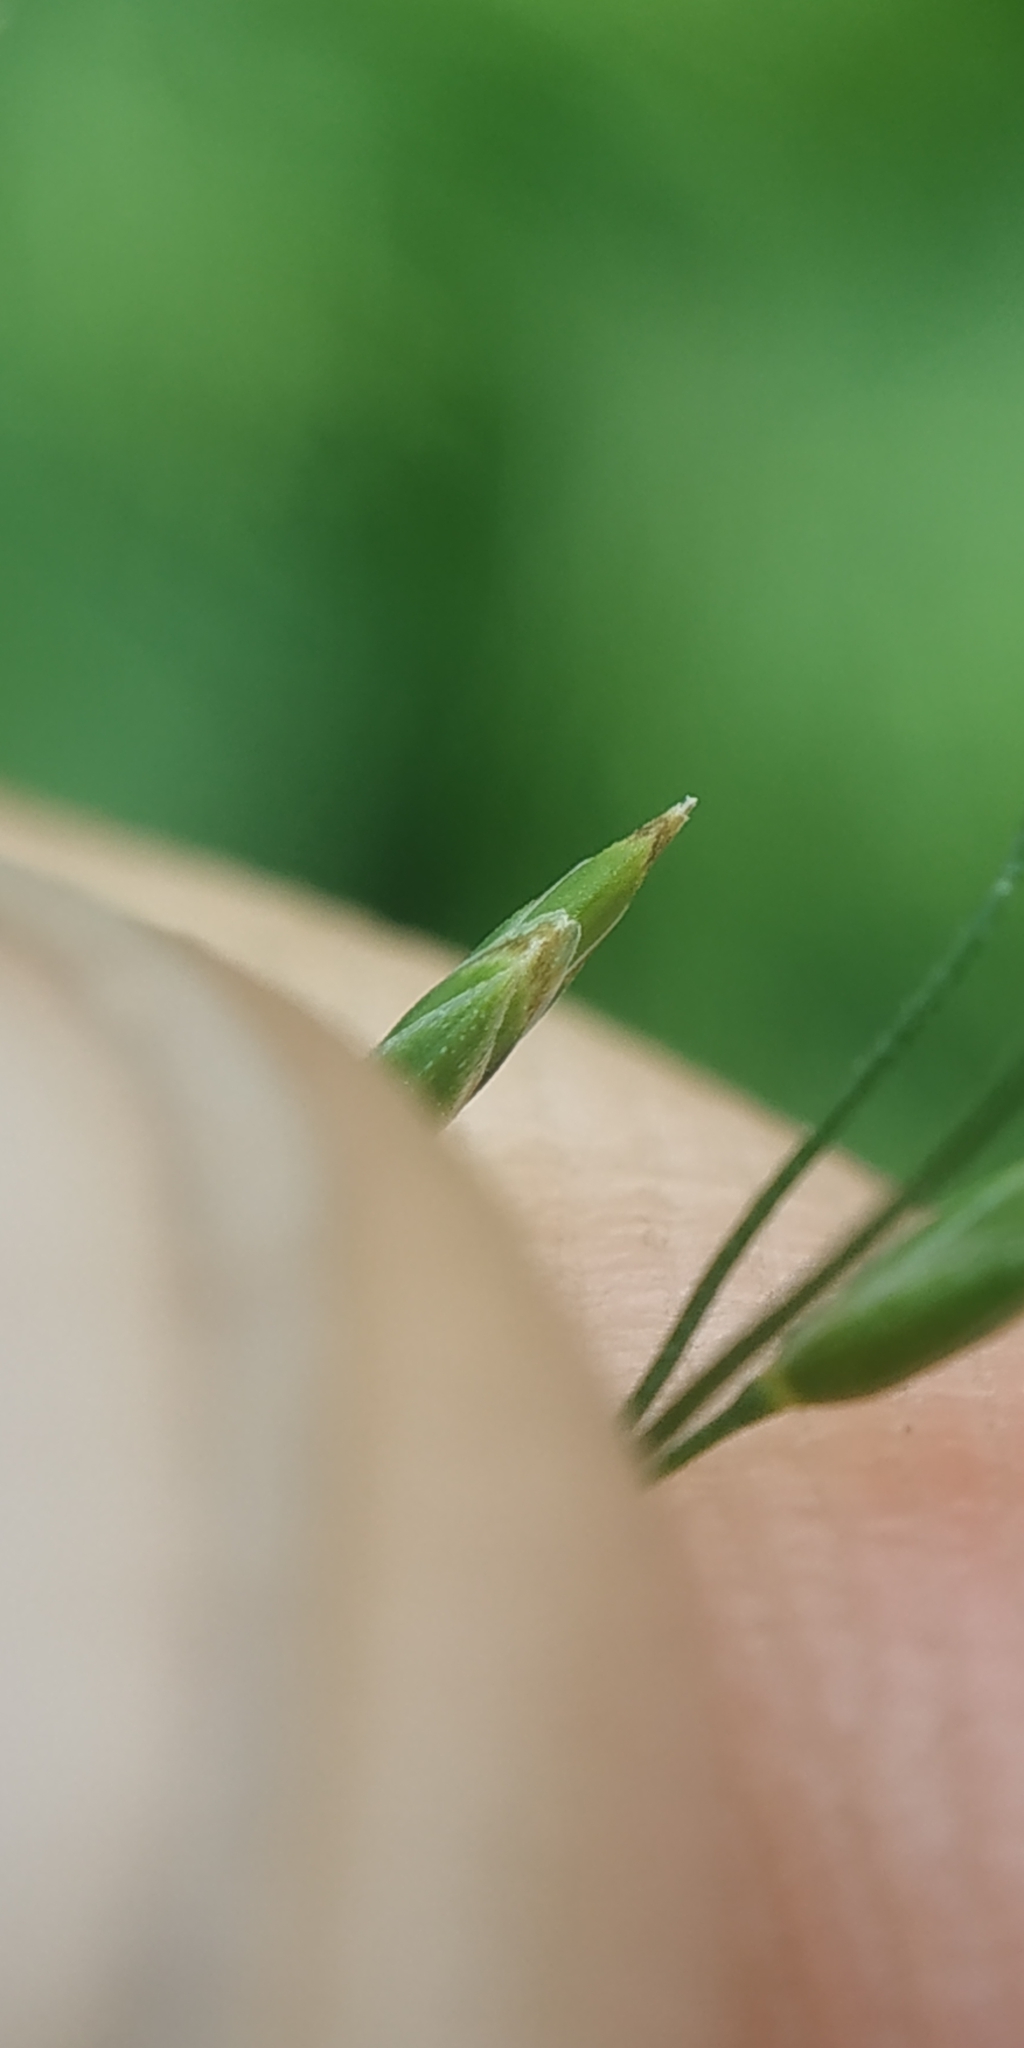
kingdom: Plantae
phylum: Tracheophyta
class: Liliopsida
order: Poales
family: Poaceae
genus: Poa
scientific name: Poa palustris
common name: Swamp meadow-grass
